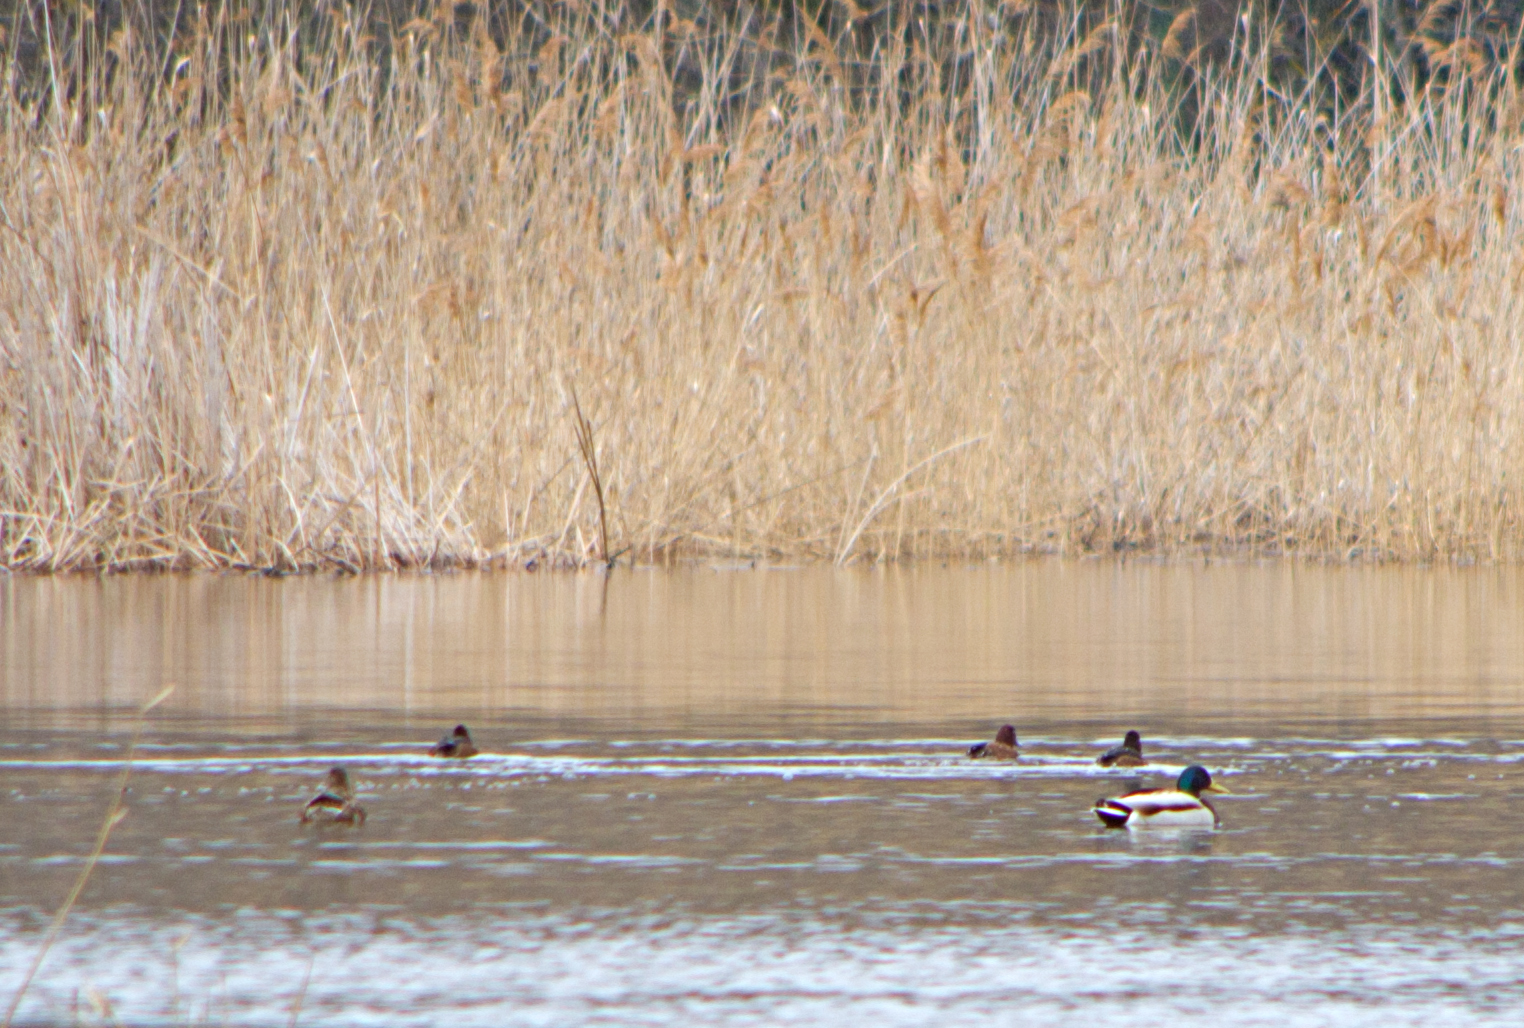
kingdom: Animalia
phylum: Chordata
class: Aves
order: Anseriformes
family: Anatidae
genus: Anas
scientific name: Anas platyrhynchos
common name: Mallard
